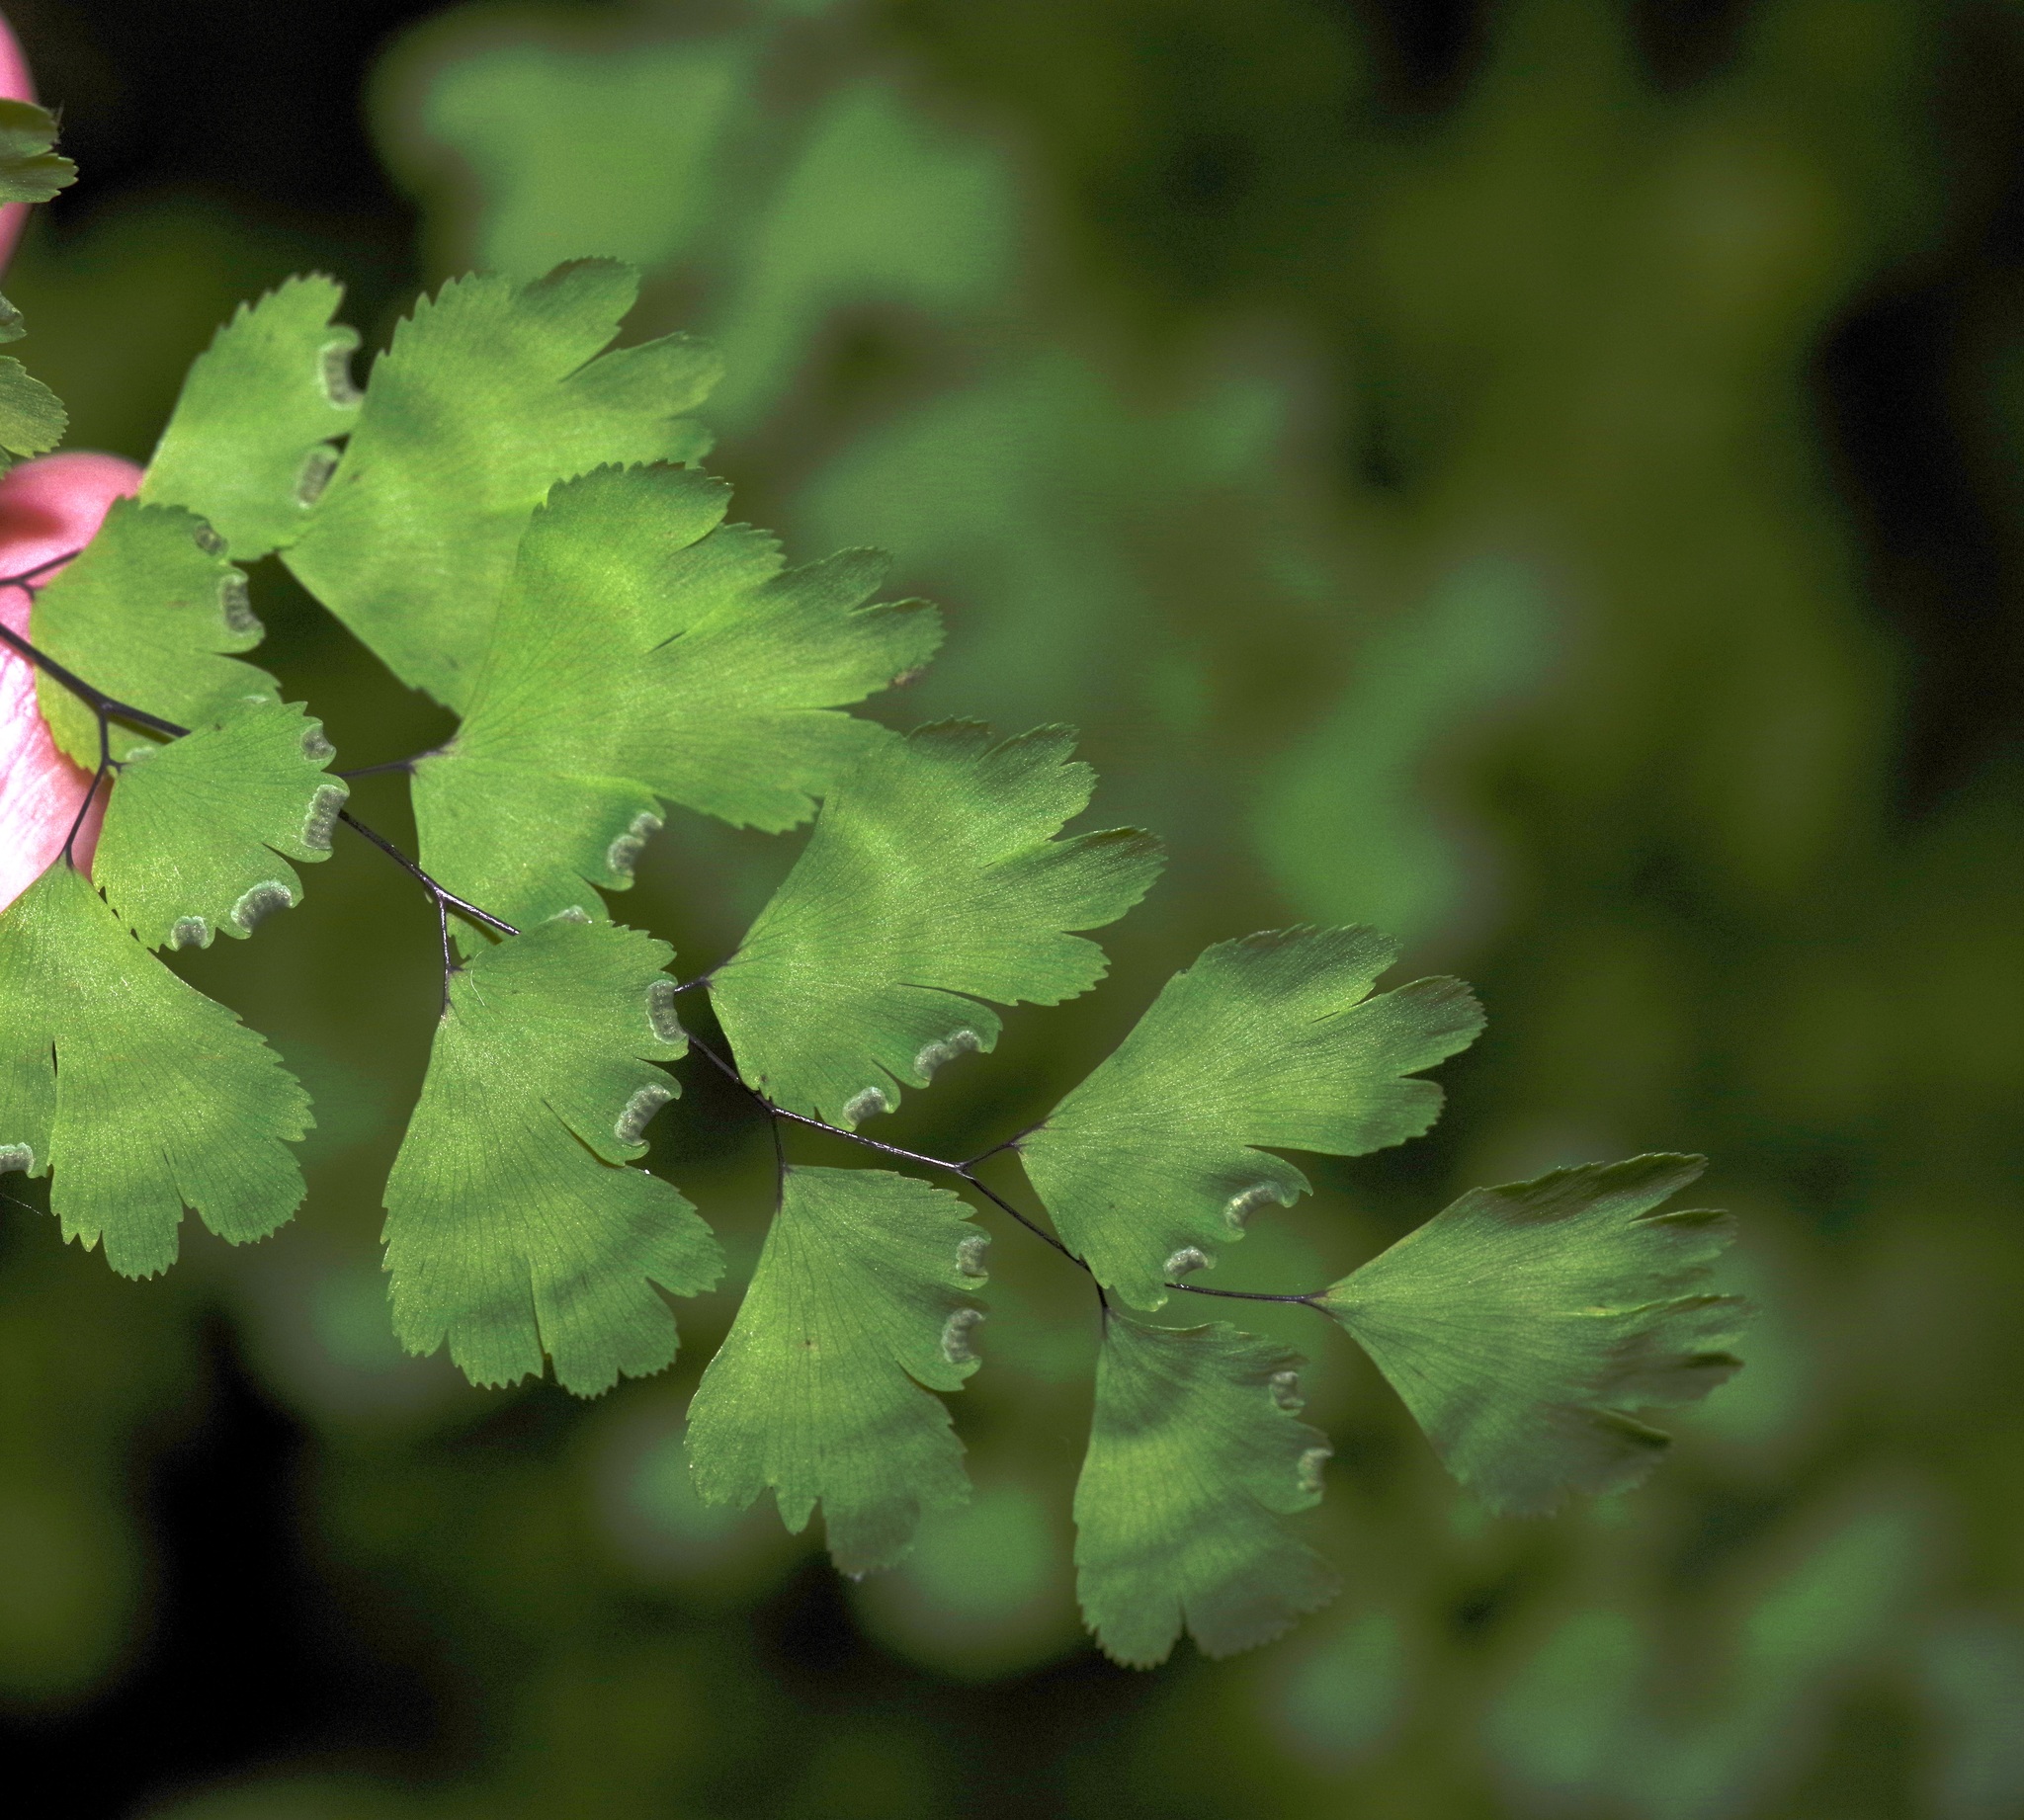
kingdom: Plantae
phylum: Tracheophyta
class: Polypodiopsida
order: Polypodiales
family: Pteridaceae
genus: Adiantum
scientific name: Adiantum capillus-veneris
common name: Maidenhair fern
